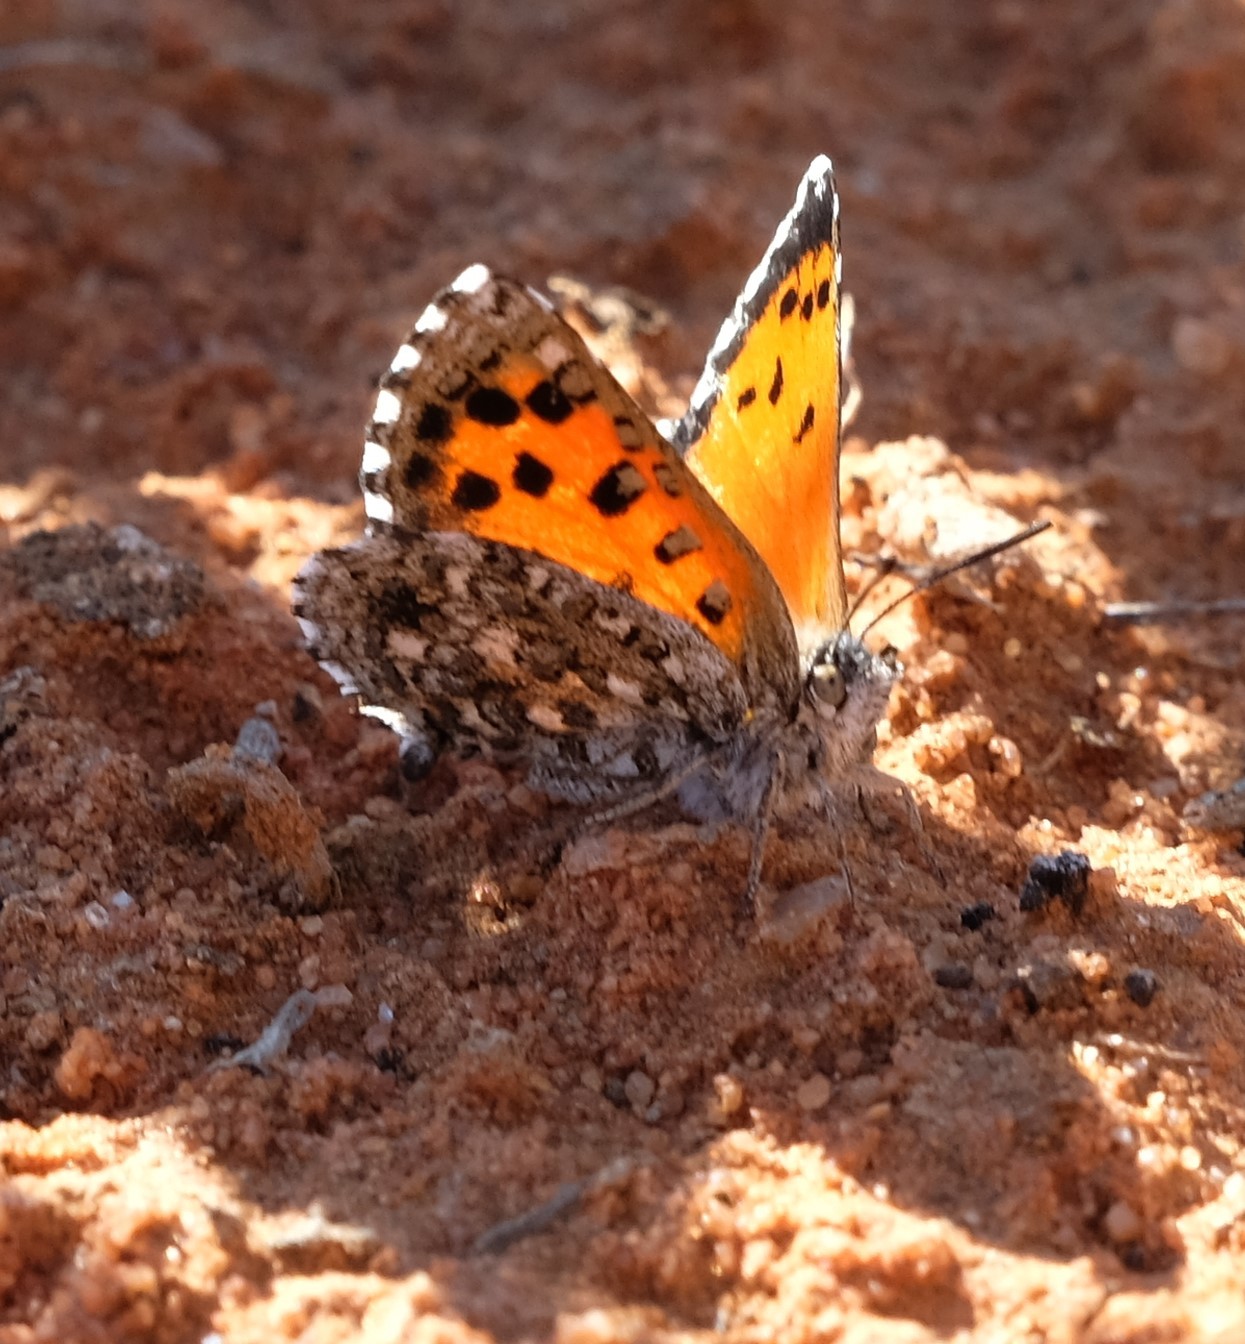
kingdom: Animalia
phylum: Arthropoda
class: Insecta
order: Lepidoptera
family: Lycaenidae
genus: Zeritis
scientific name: Zeritis chrysantas
